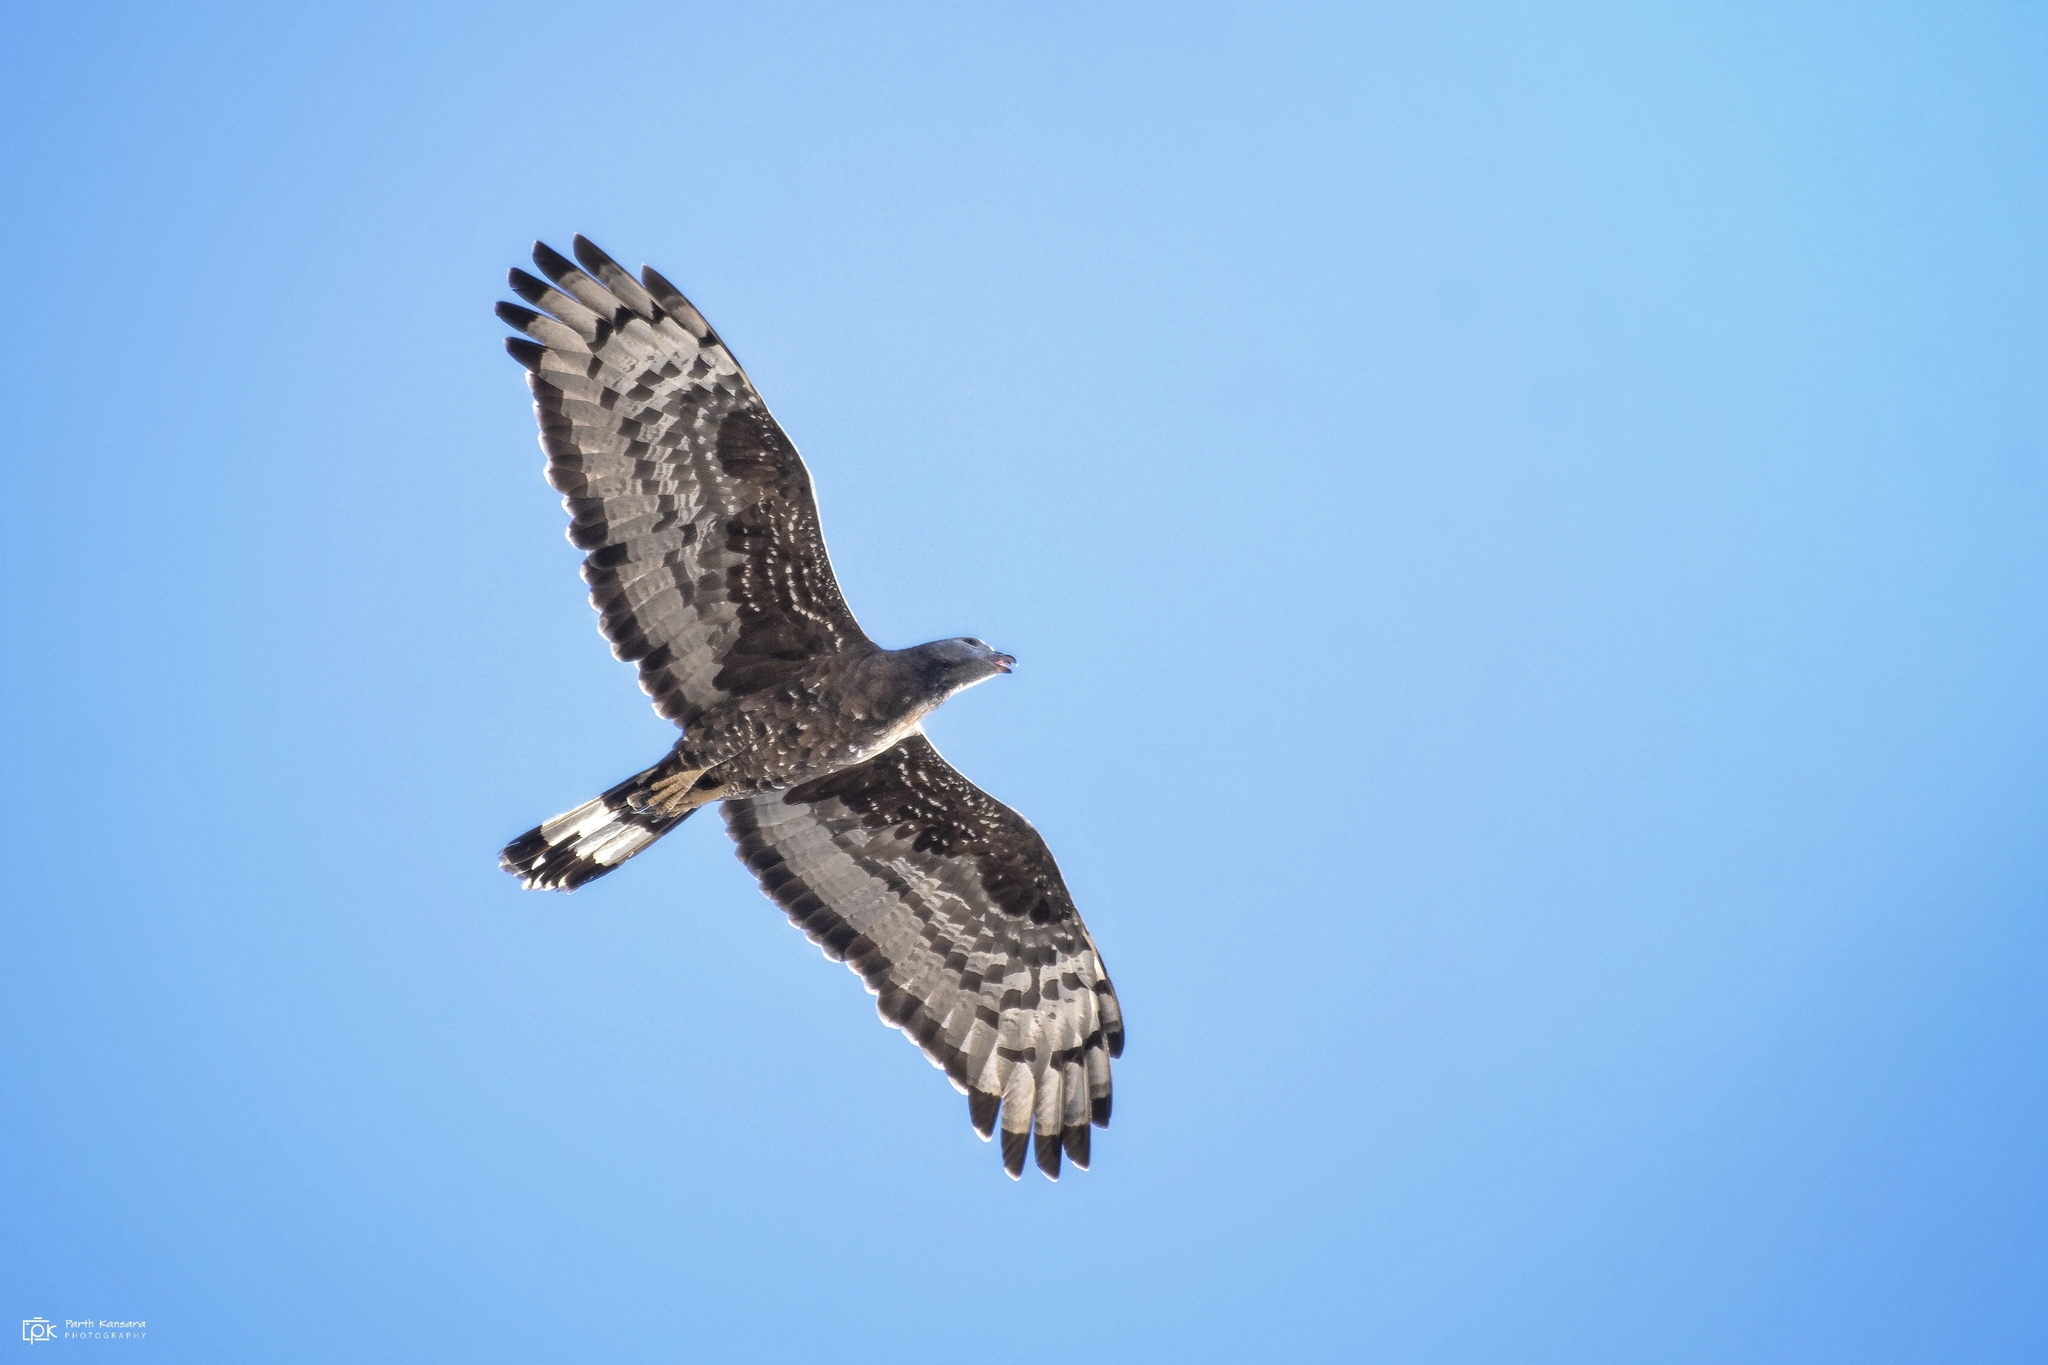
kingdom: Animalia
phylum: Chordata
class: Aves
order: Accipitriformes
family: Accipitridae
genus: Pernis
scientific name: Pernis ptilorhynchus
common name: Crested honey buzzard
